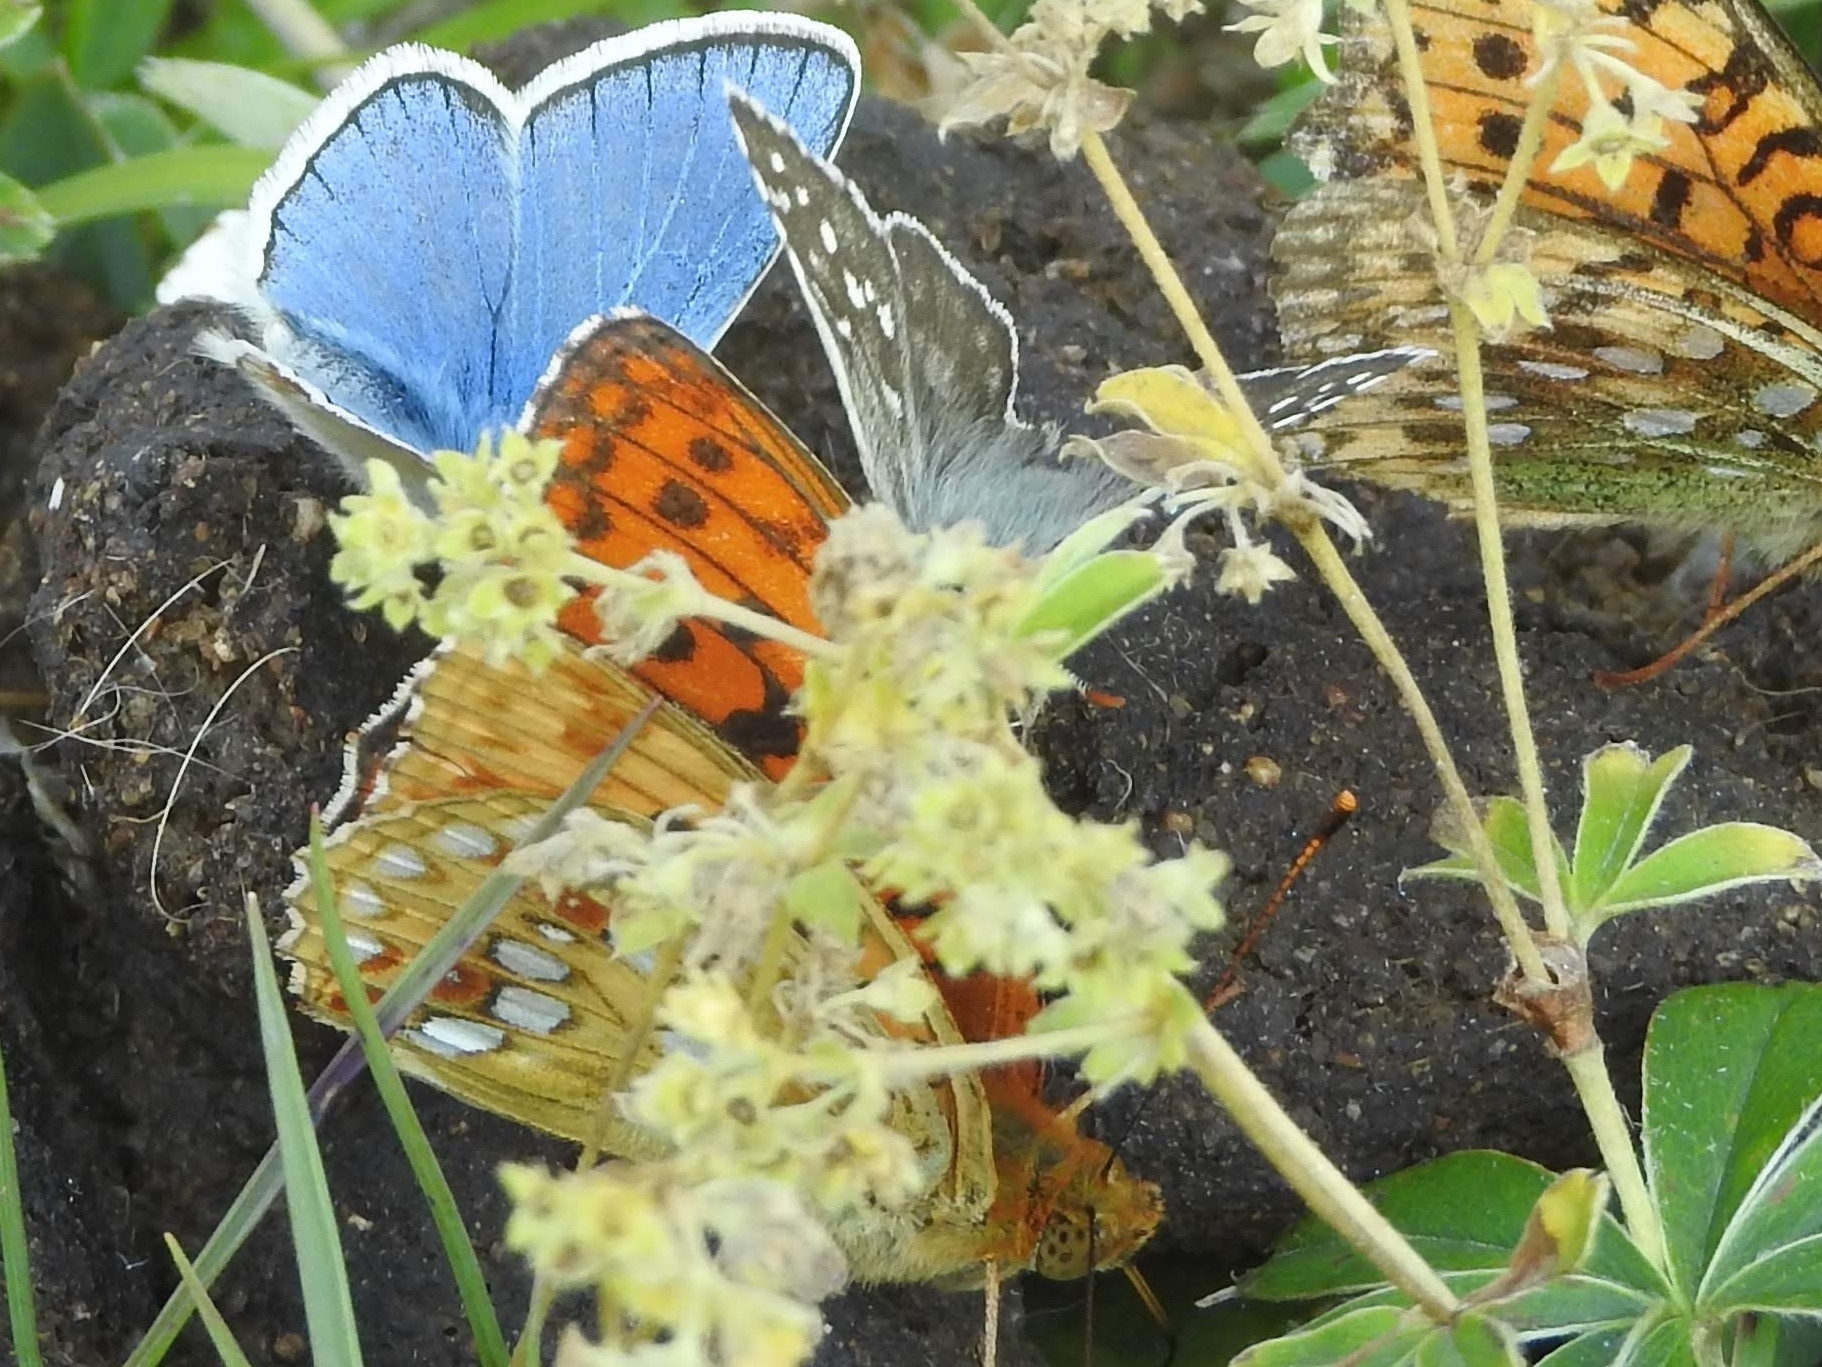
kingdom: Animalia
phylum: Arthropoda
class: Insecta
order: Lepidoptera
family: Nymphalidae
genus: Fabriciana
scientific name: Fabriciana adippe
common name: High brown fritillary
